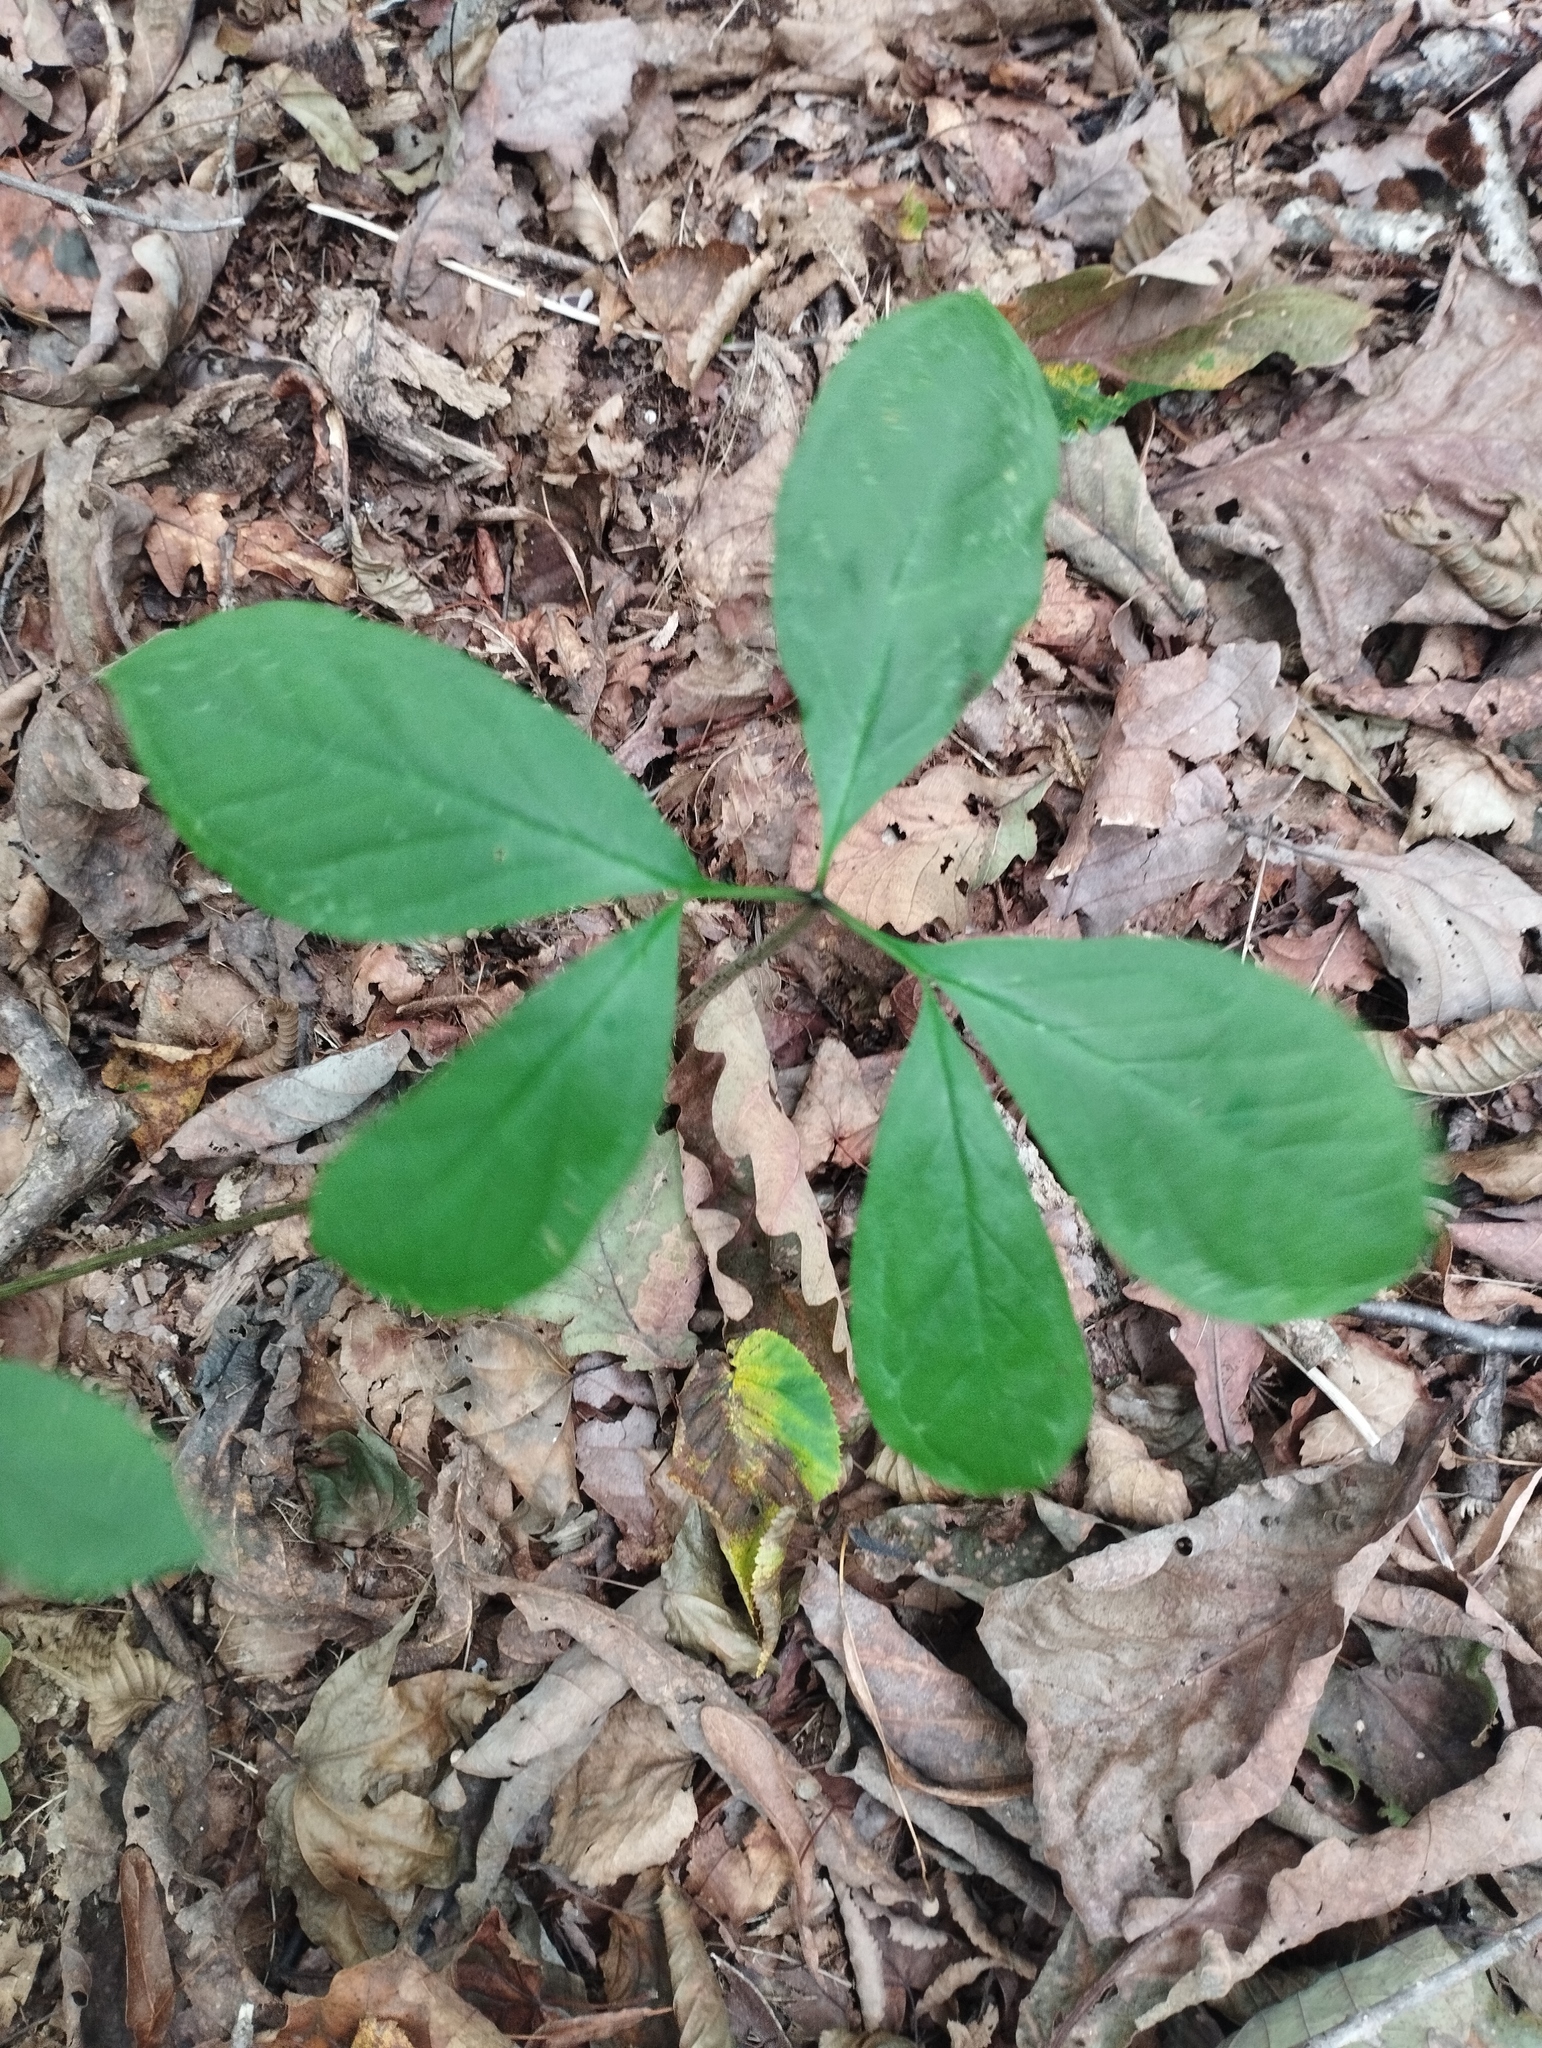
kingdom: Plantae
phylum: Tracheophyta
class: Liliopsida
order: Alismatales
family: Araceae
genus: Arisaema
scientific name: Arisaema serratum
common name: Japanese arisaema
